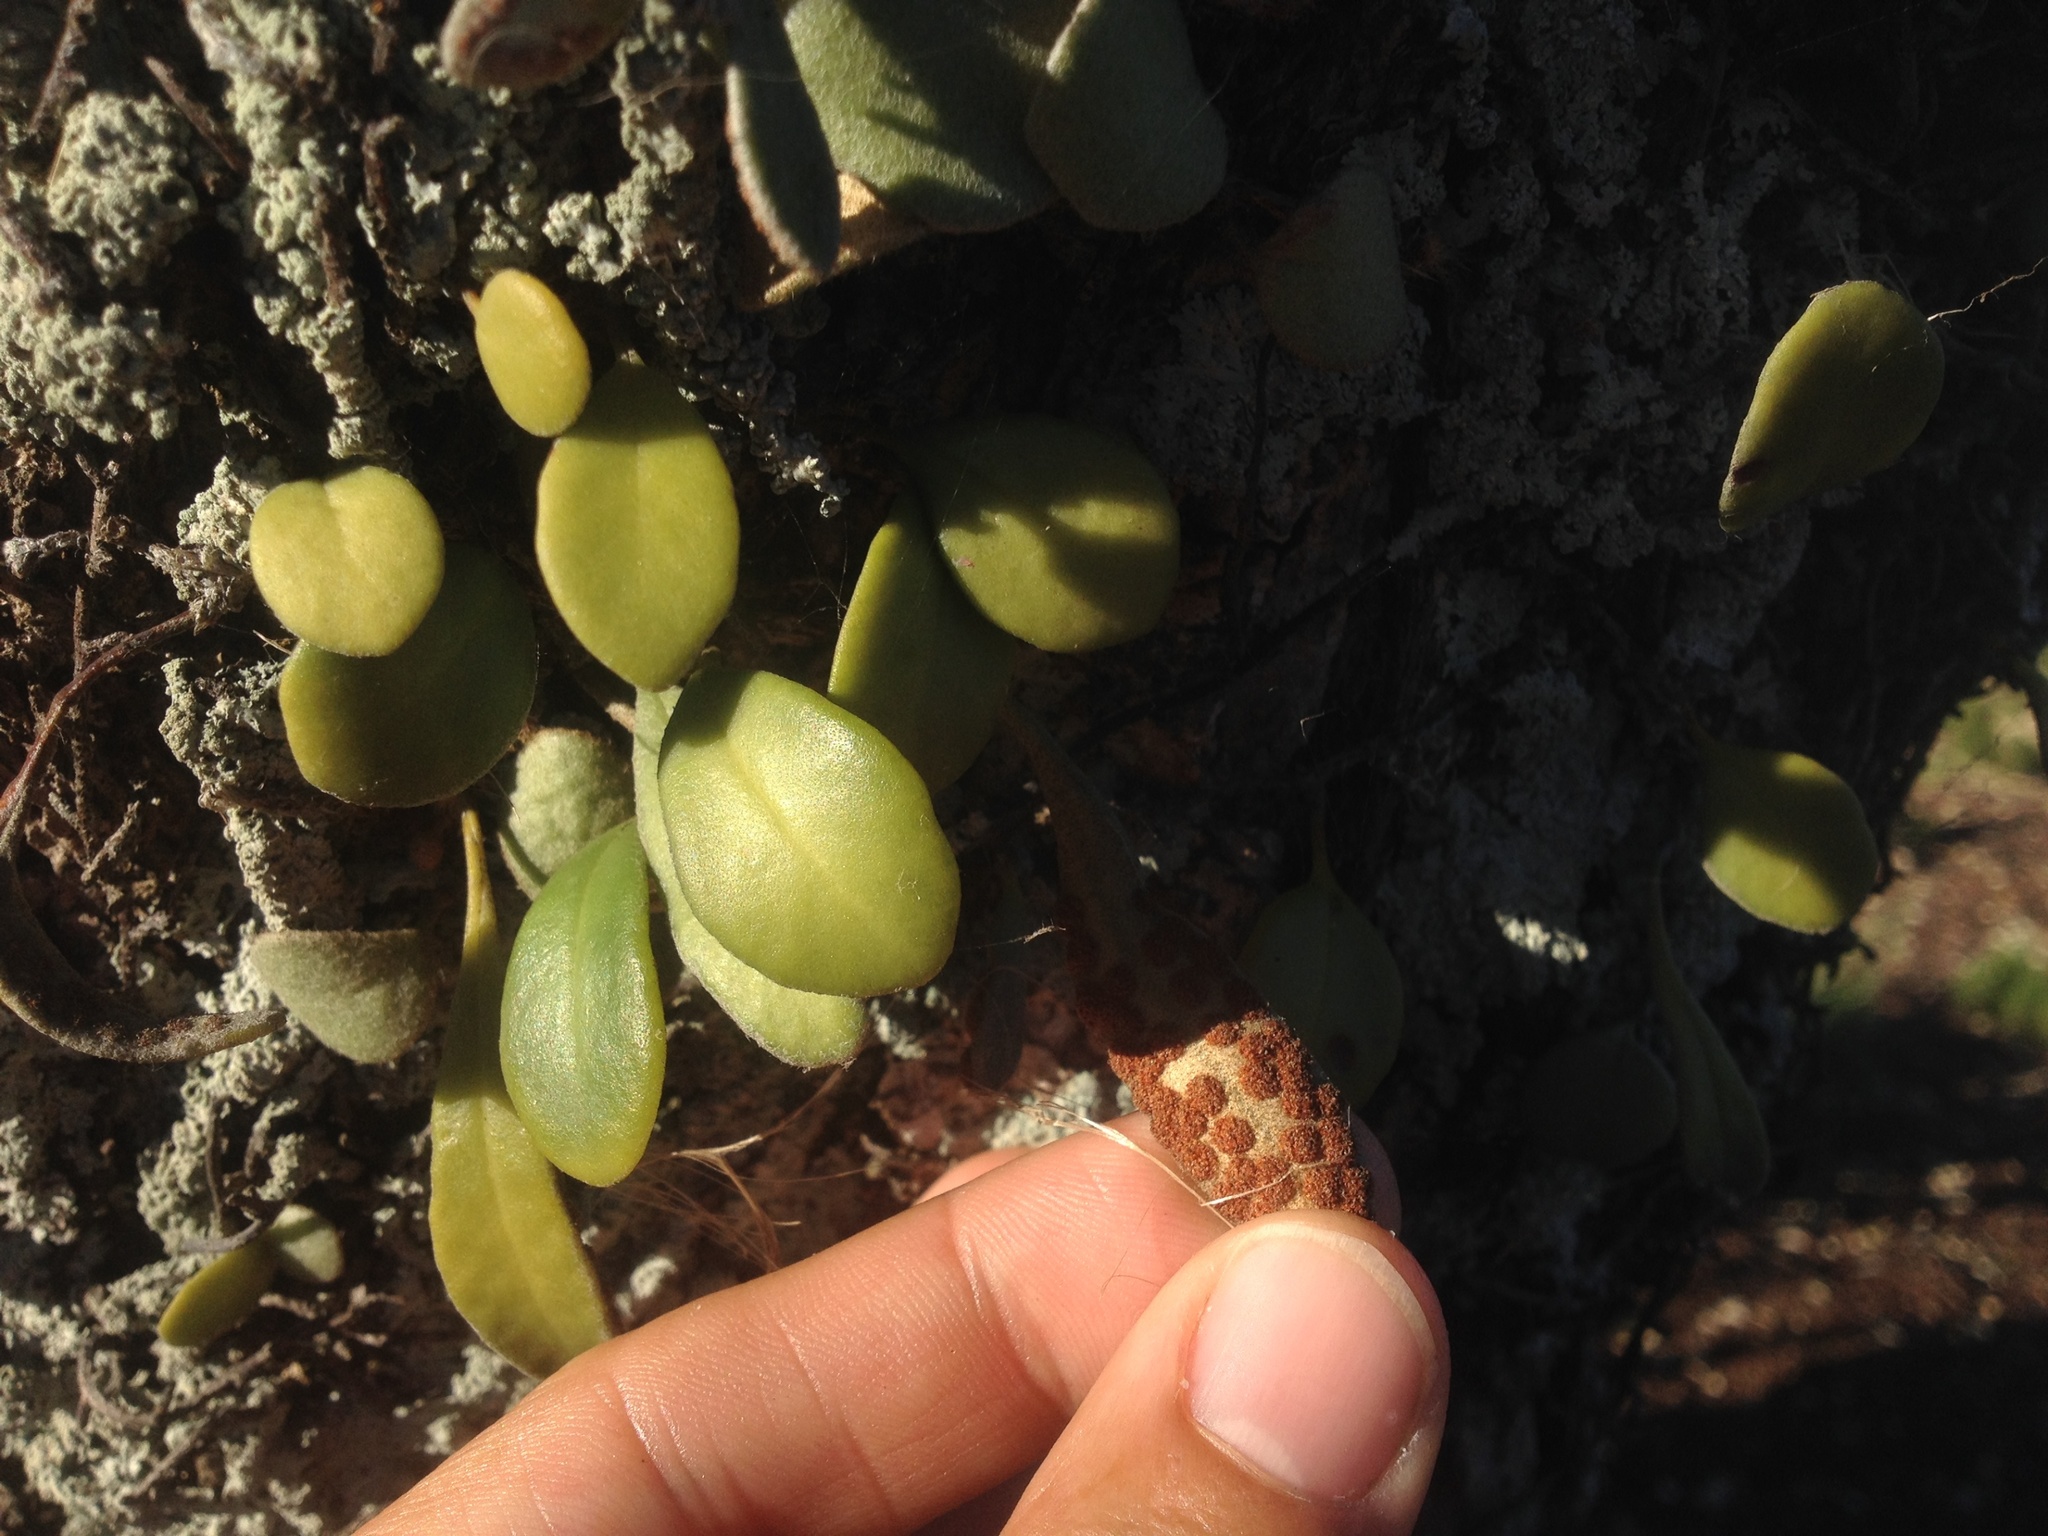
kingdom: Plantae
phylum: Tracheophyta
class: Polypodiopsida
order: Polypodiales
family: Polypodiaceae
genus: Pyrrosia
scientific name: Pyrrosia eleagnifolia
